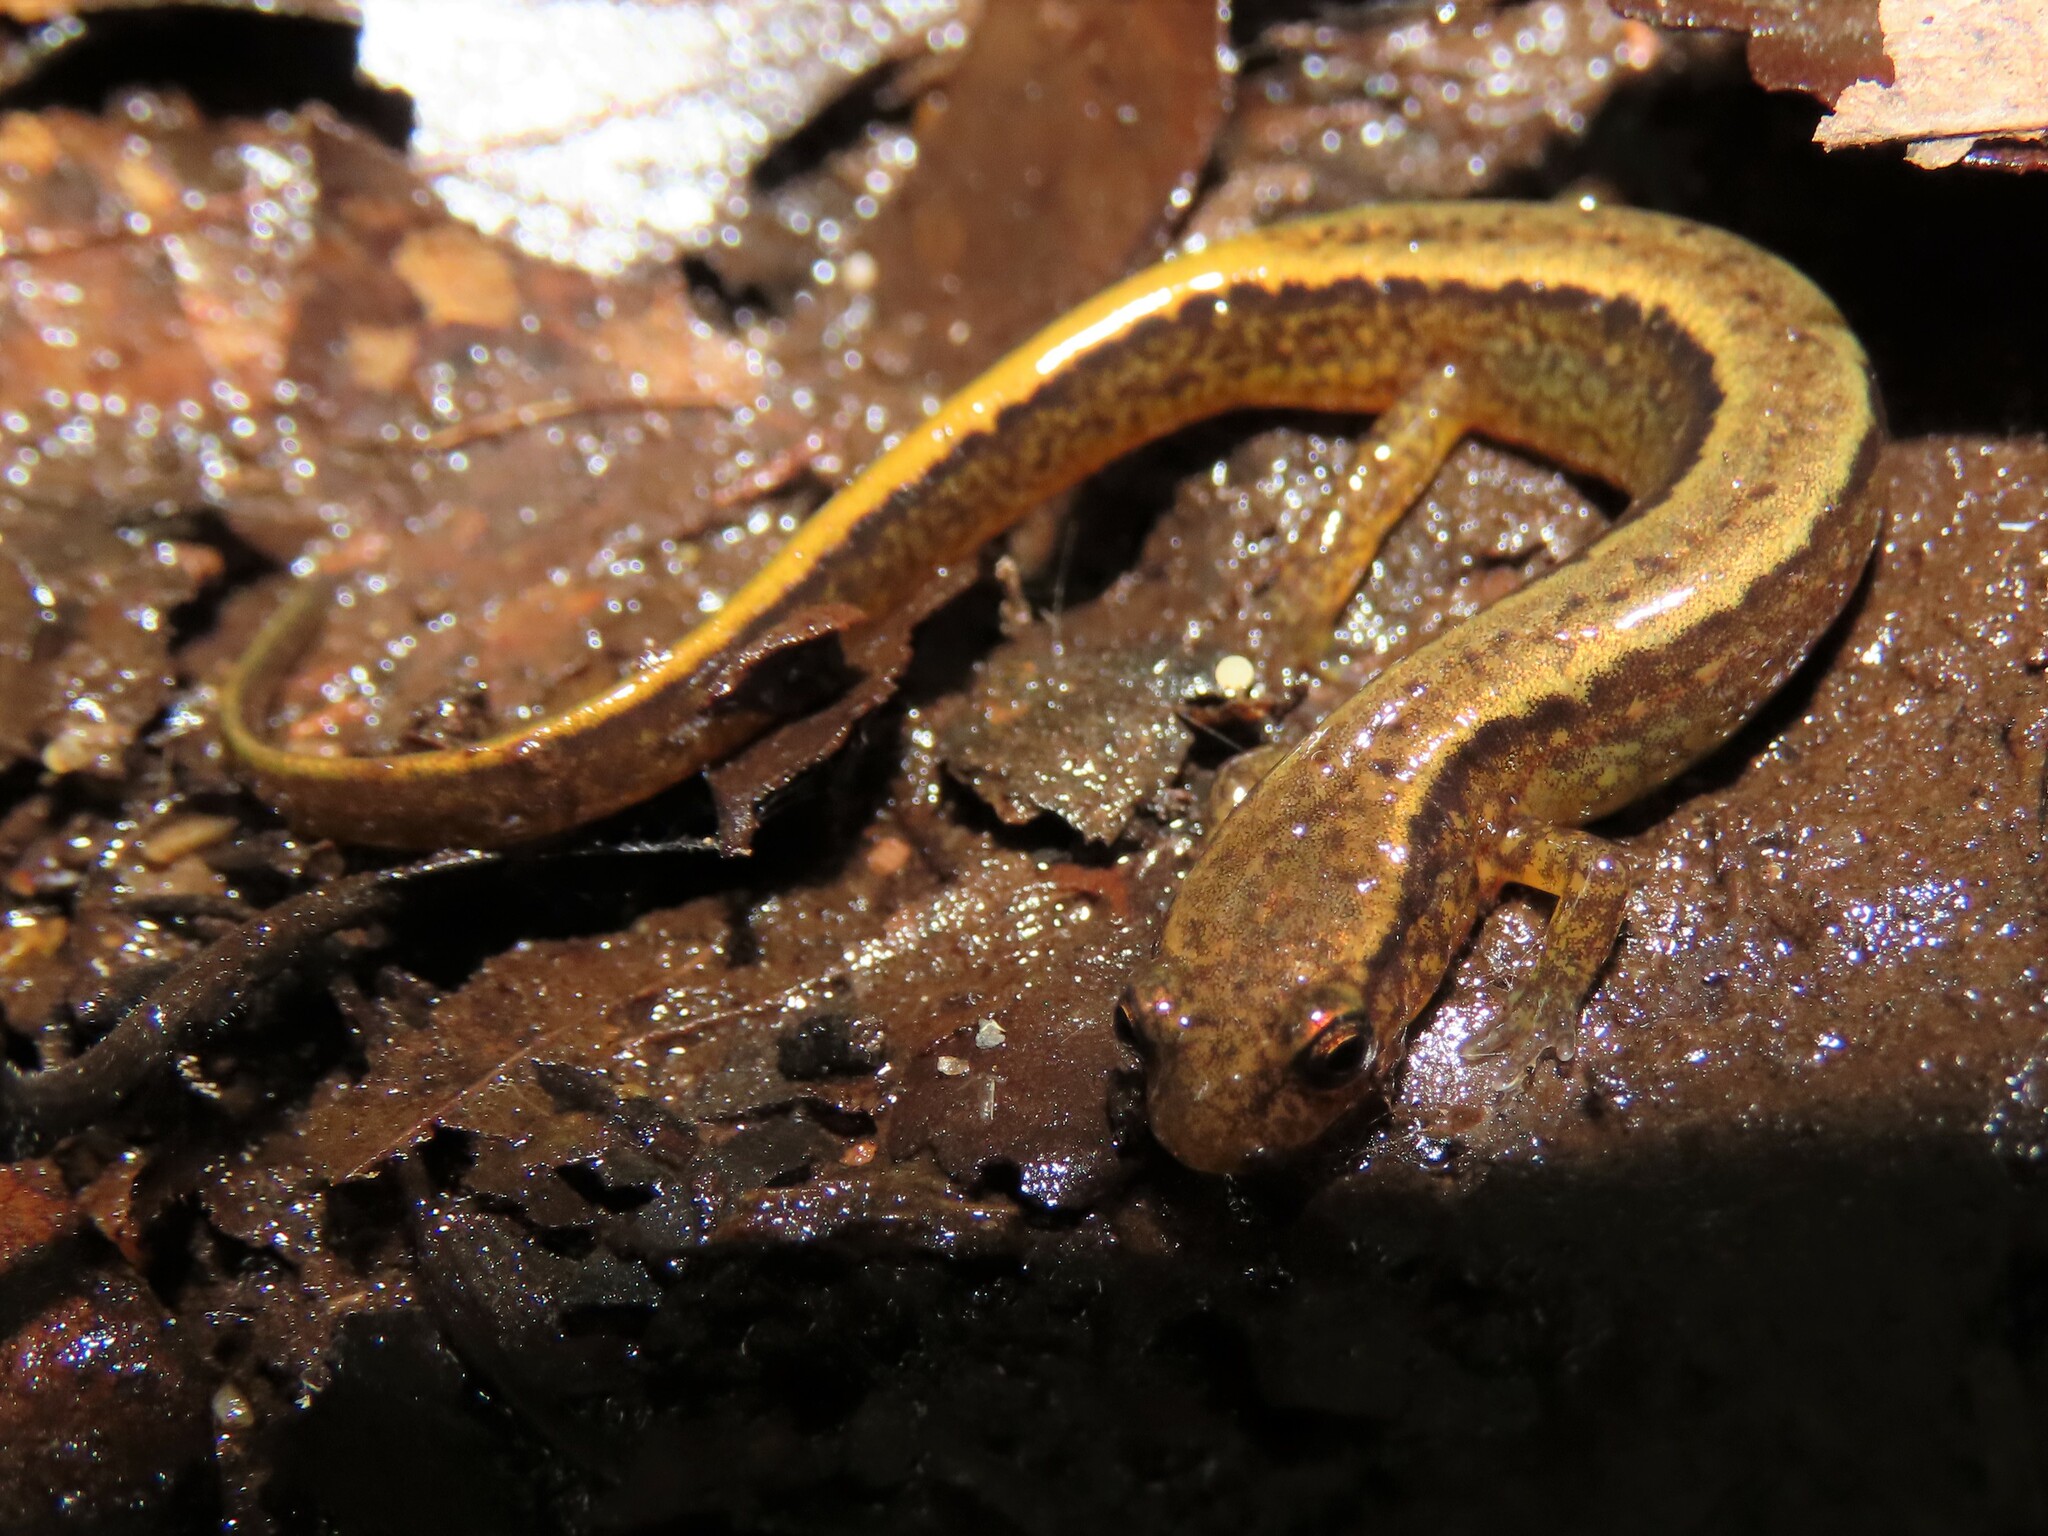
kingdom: Animalia
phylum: Chordata
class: Amphibia
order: Caudata
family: Plethodontidae
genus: Eurycea
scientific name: Eurycea bislineata
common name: Northern two-lined salamander
